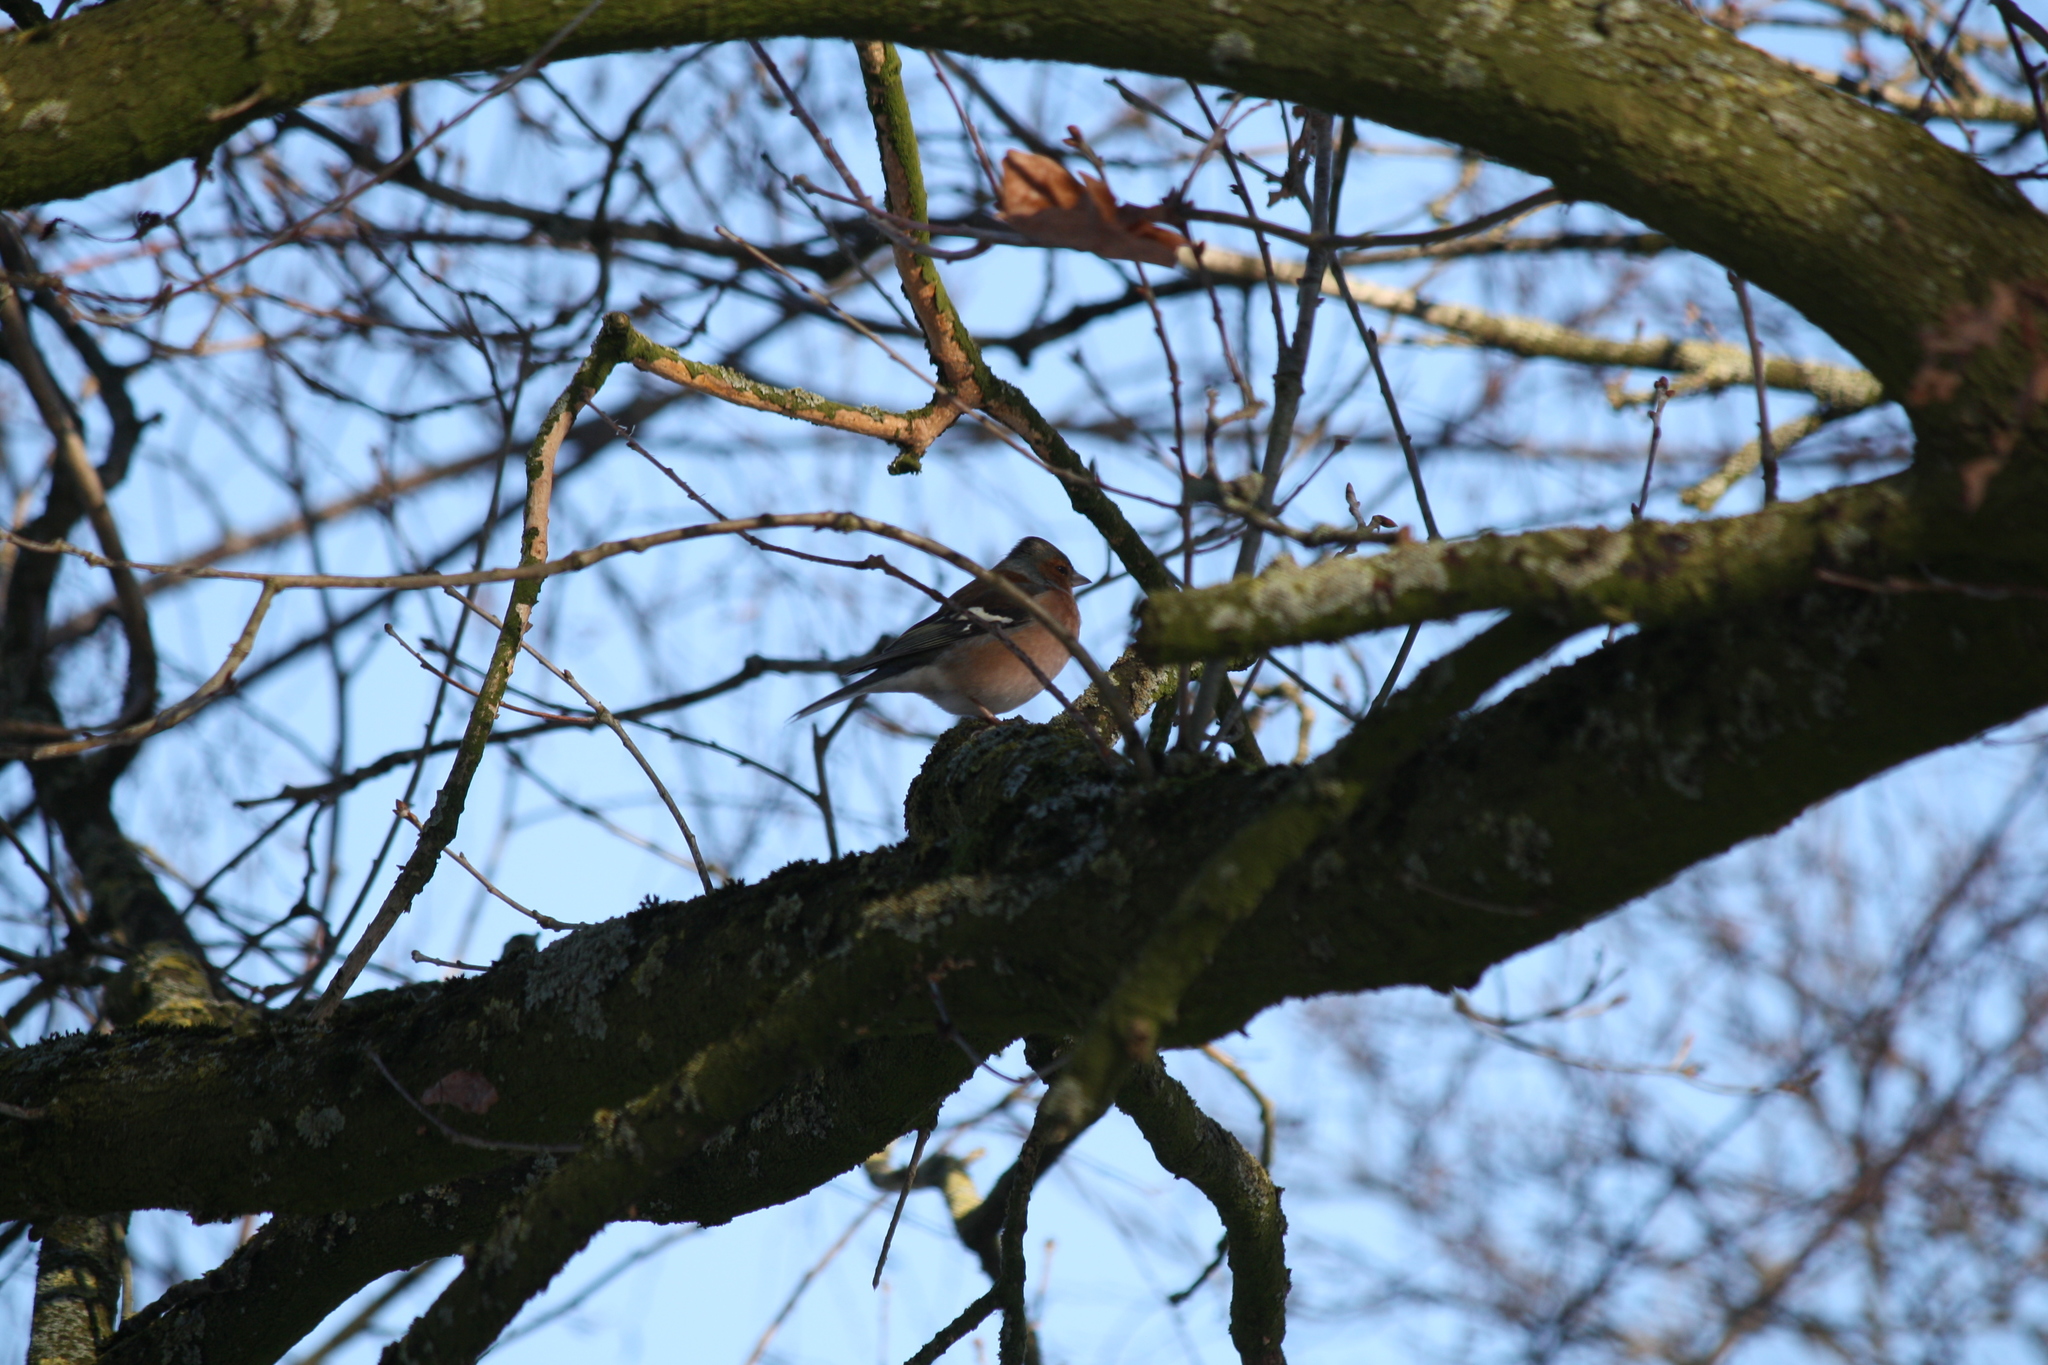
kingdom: Animalia
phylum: Chordata
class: Aves
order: Passeriformes
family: Fringillidae
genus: Fringilla
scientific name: Fringilla coelebs
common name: Common chaffinch
